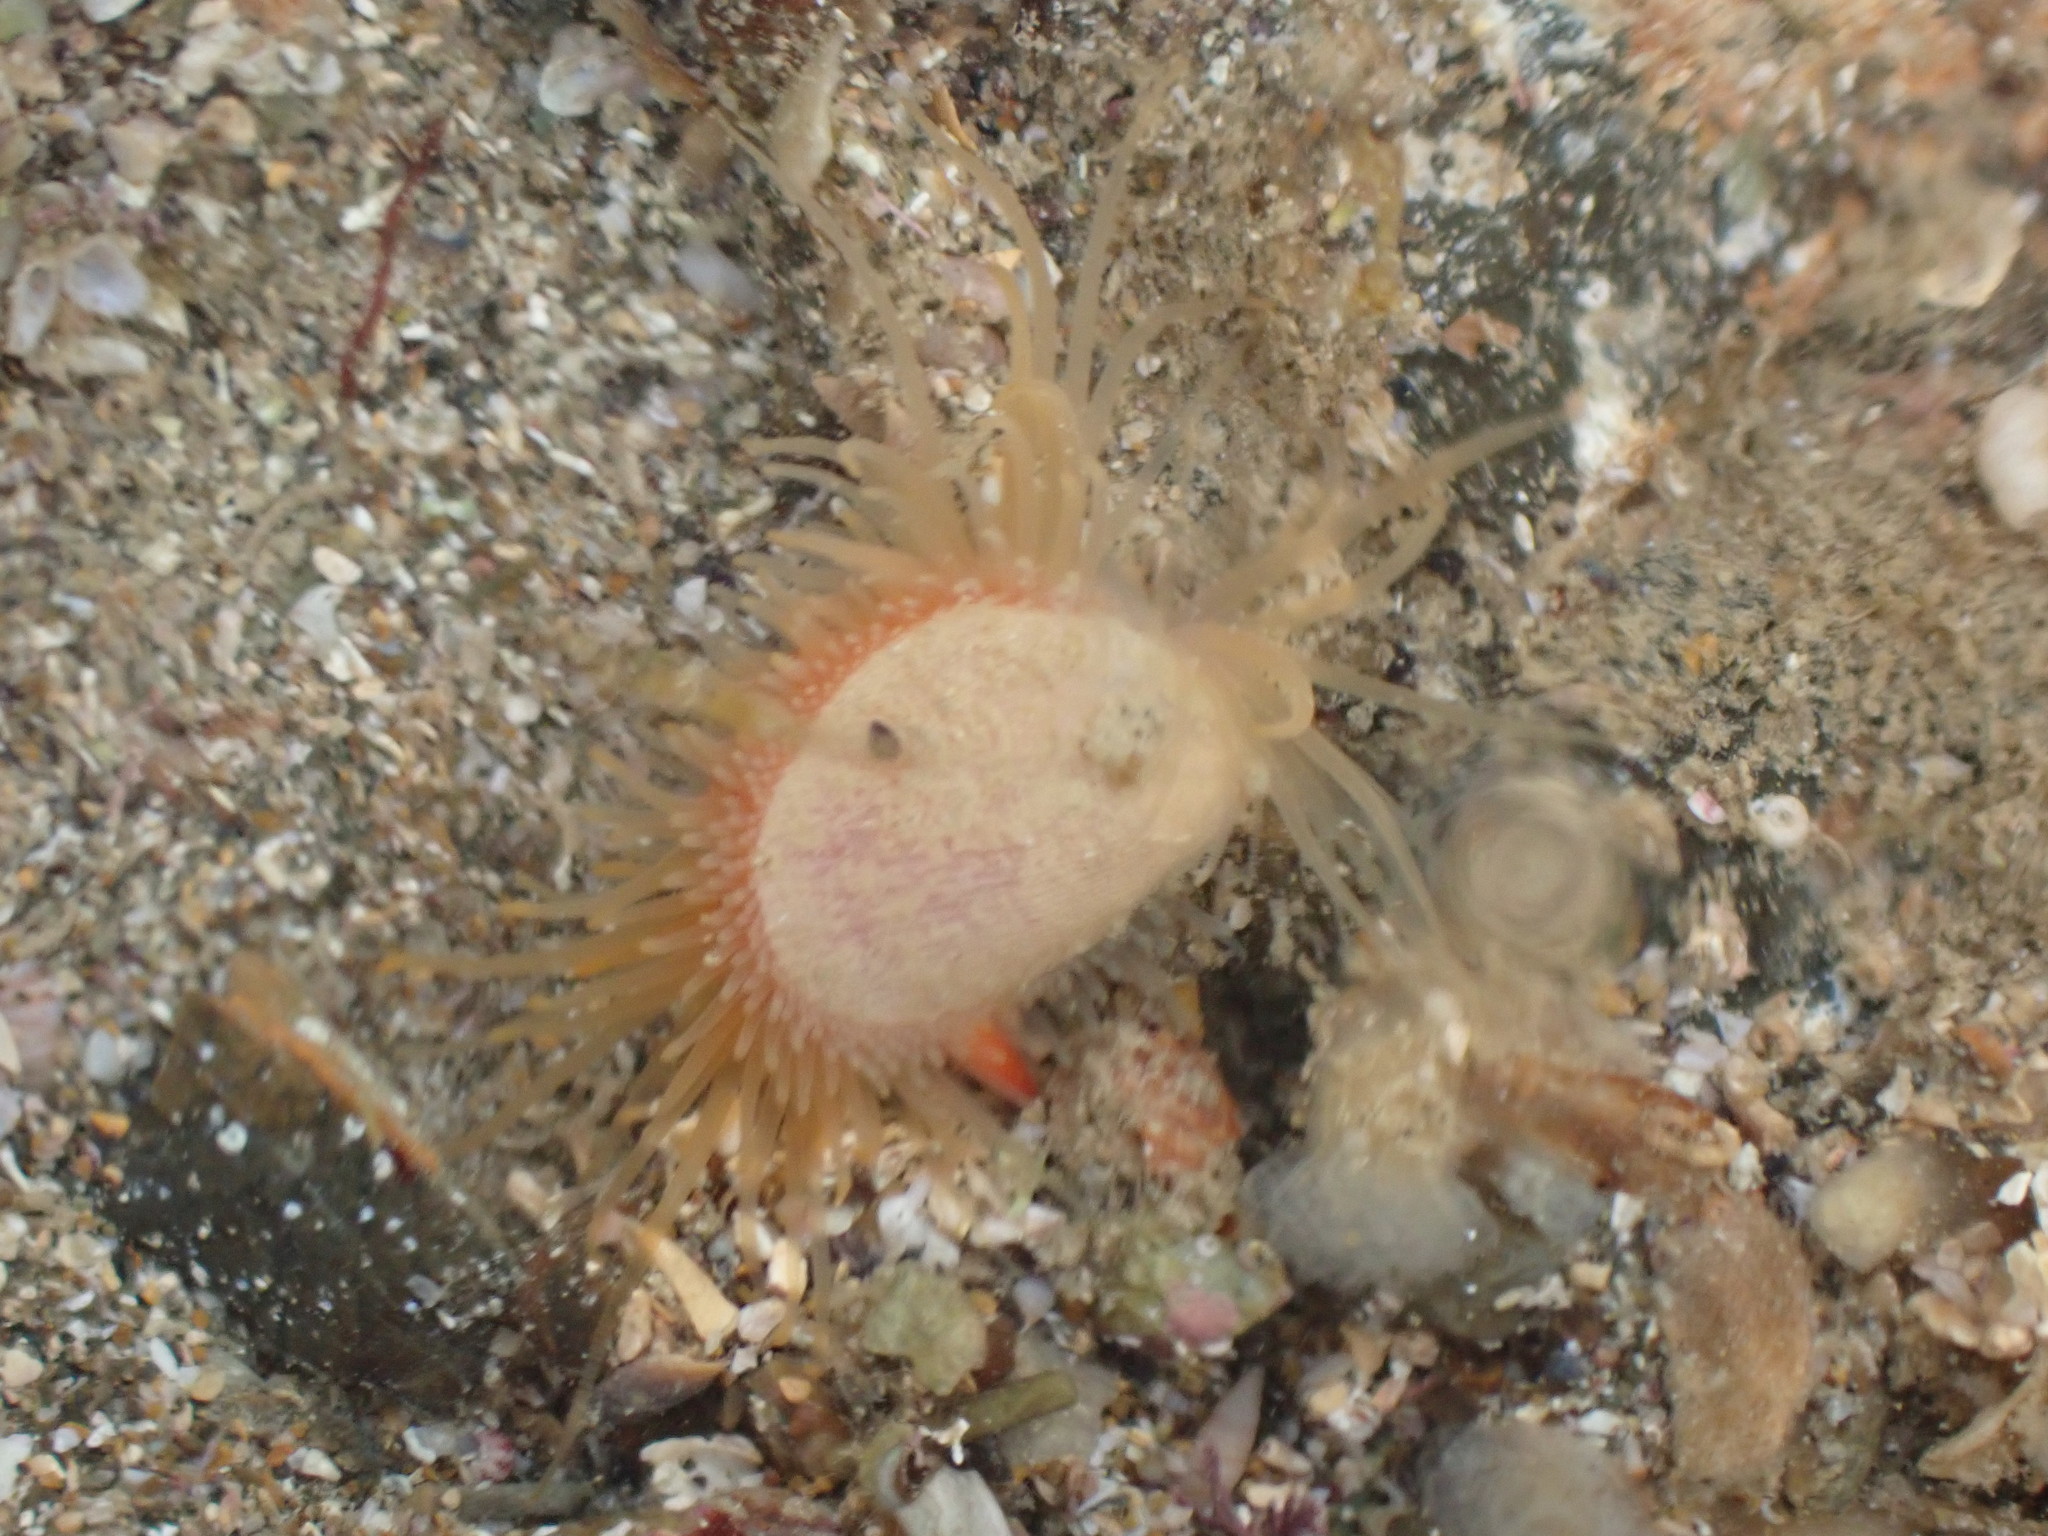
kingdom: Animalia
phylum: Mollusca
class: Bivalvia
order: Limida
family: Limidae
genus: Limaria
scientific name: Limaria orientalis
